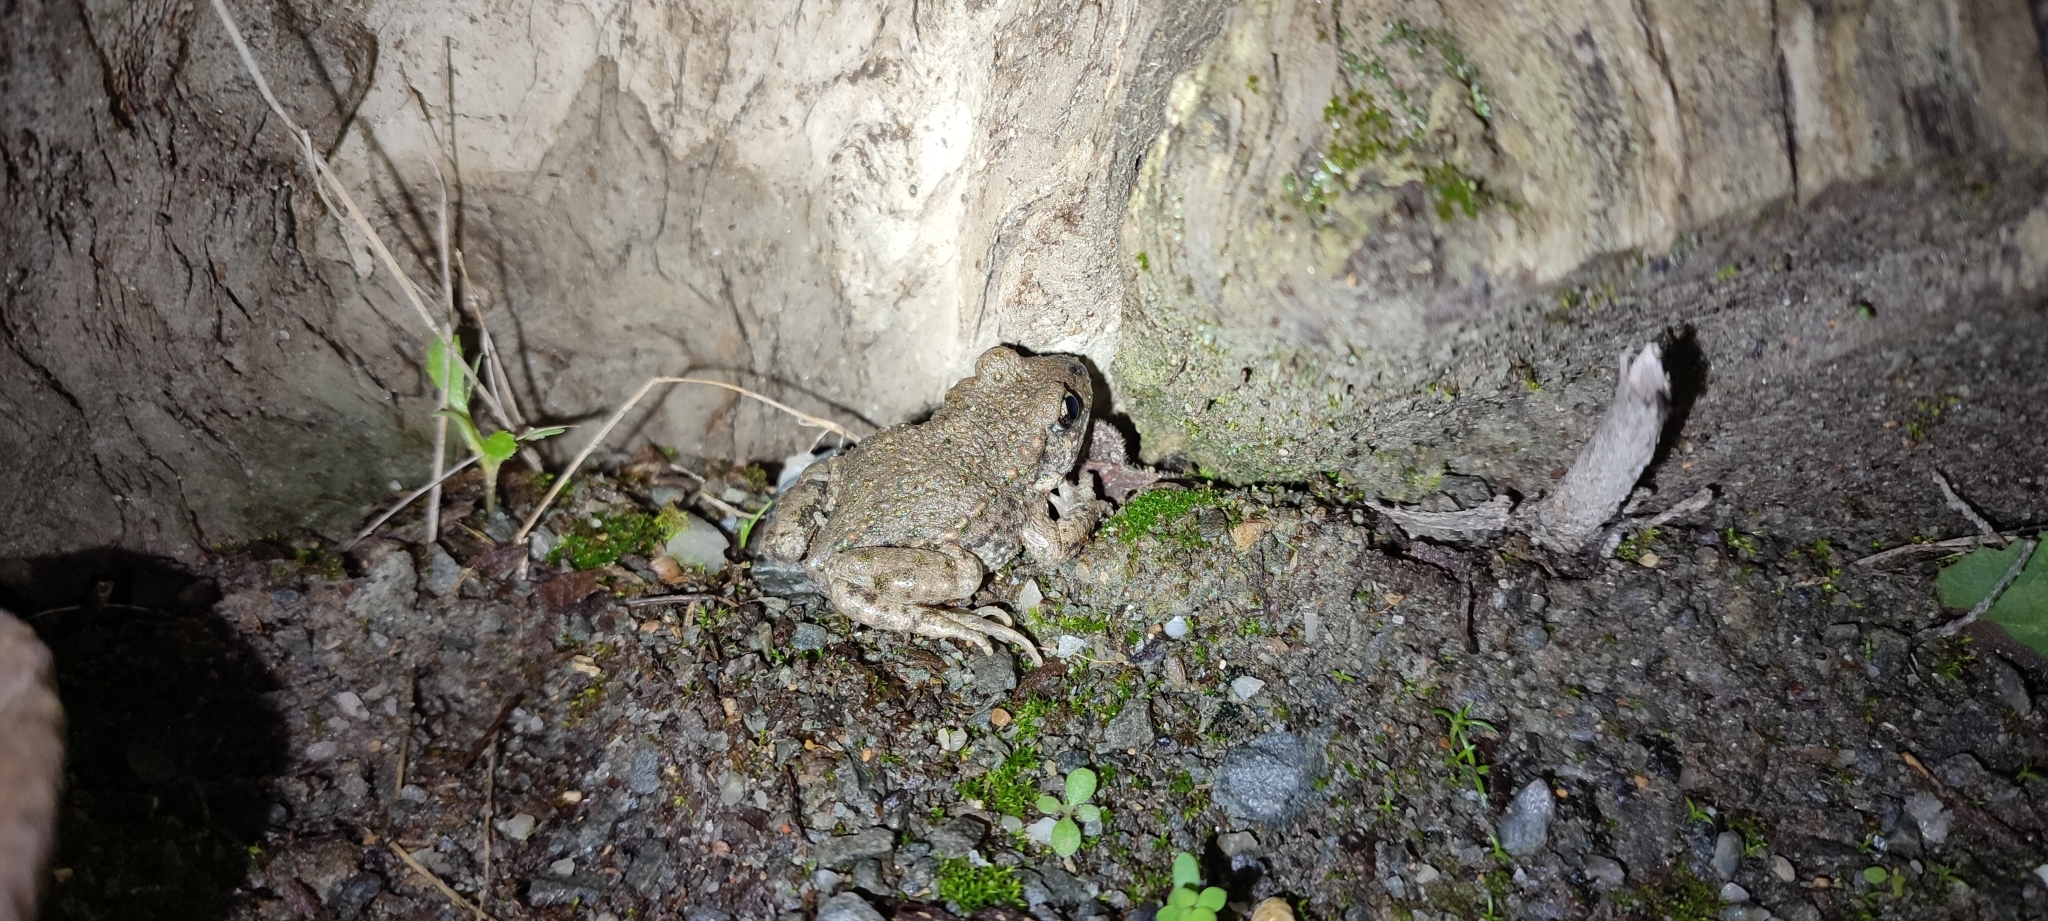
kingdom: Animalia
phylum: Chordata
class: Amphibia
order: Anura
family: Alytidae
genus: Alytes
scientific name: Alytes obstetricans
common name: Midwife toad
